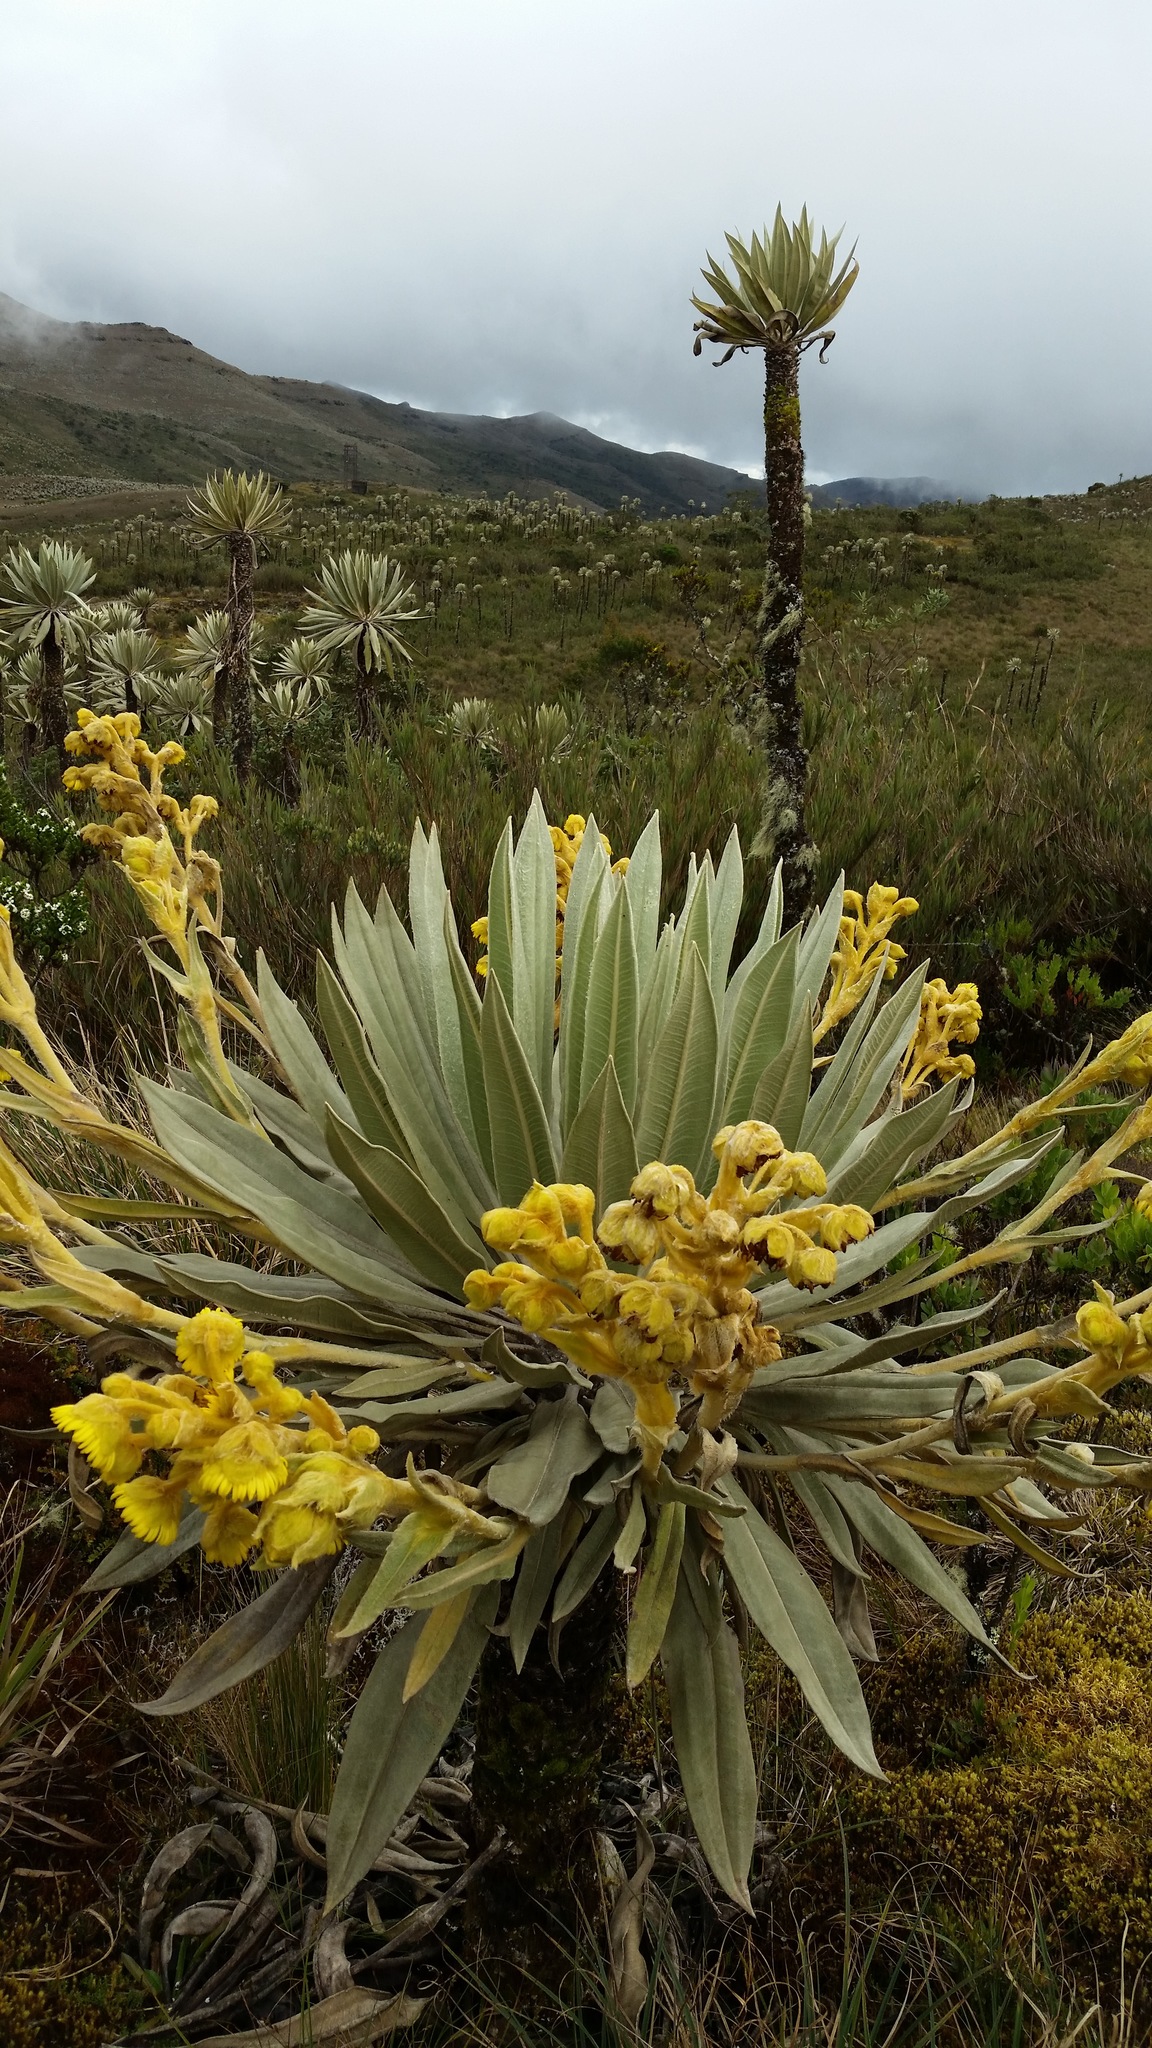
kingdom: Plantae
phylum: Tracheophyta
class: Magnoliopsida
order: Asterales
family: Asteraceae
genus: Espeletia
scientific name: Espeletia grandiflora
